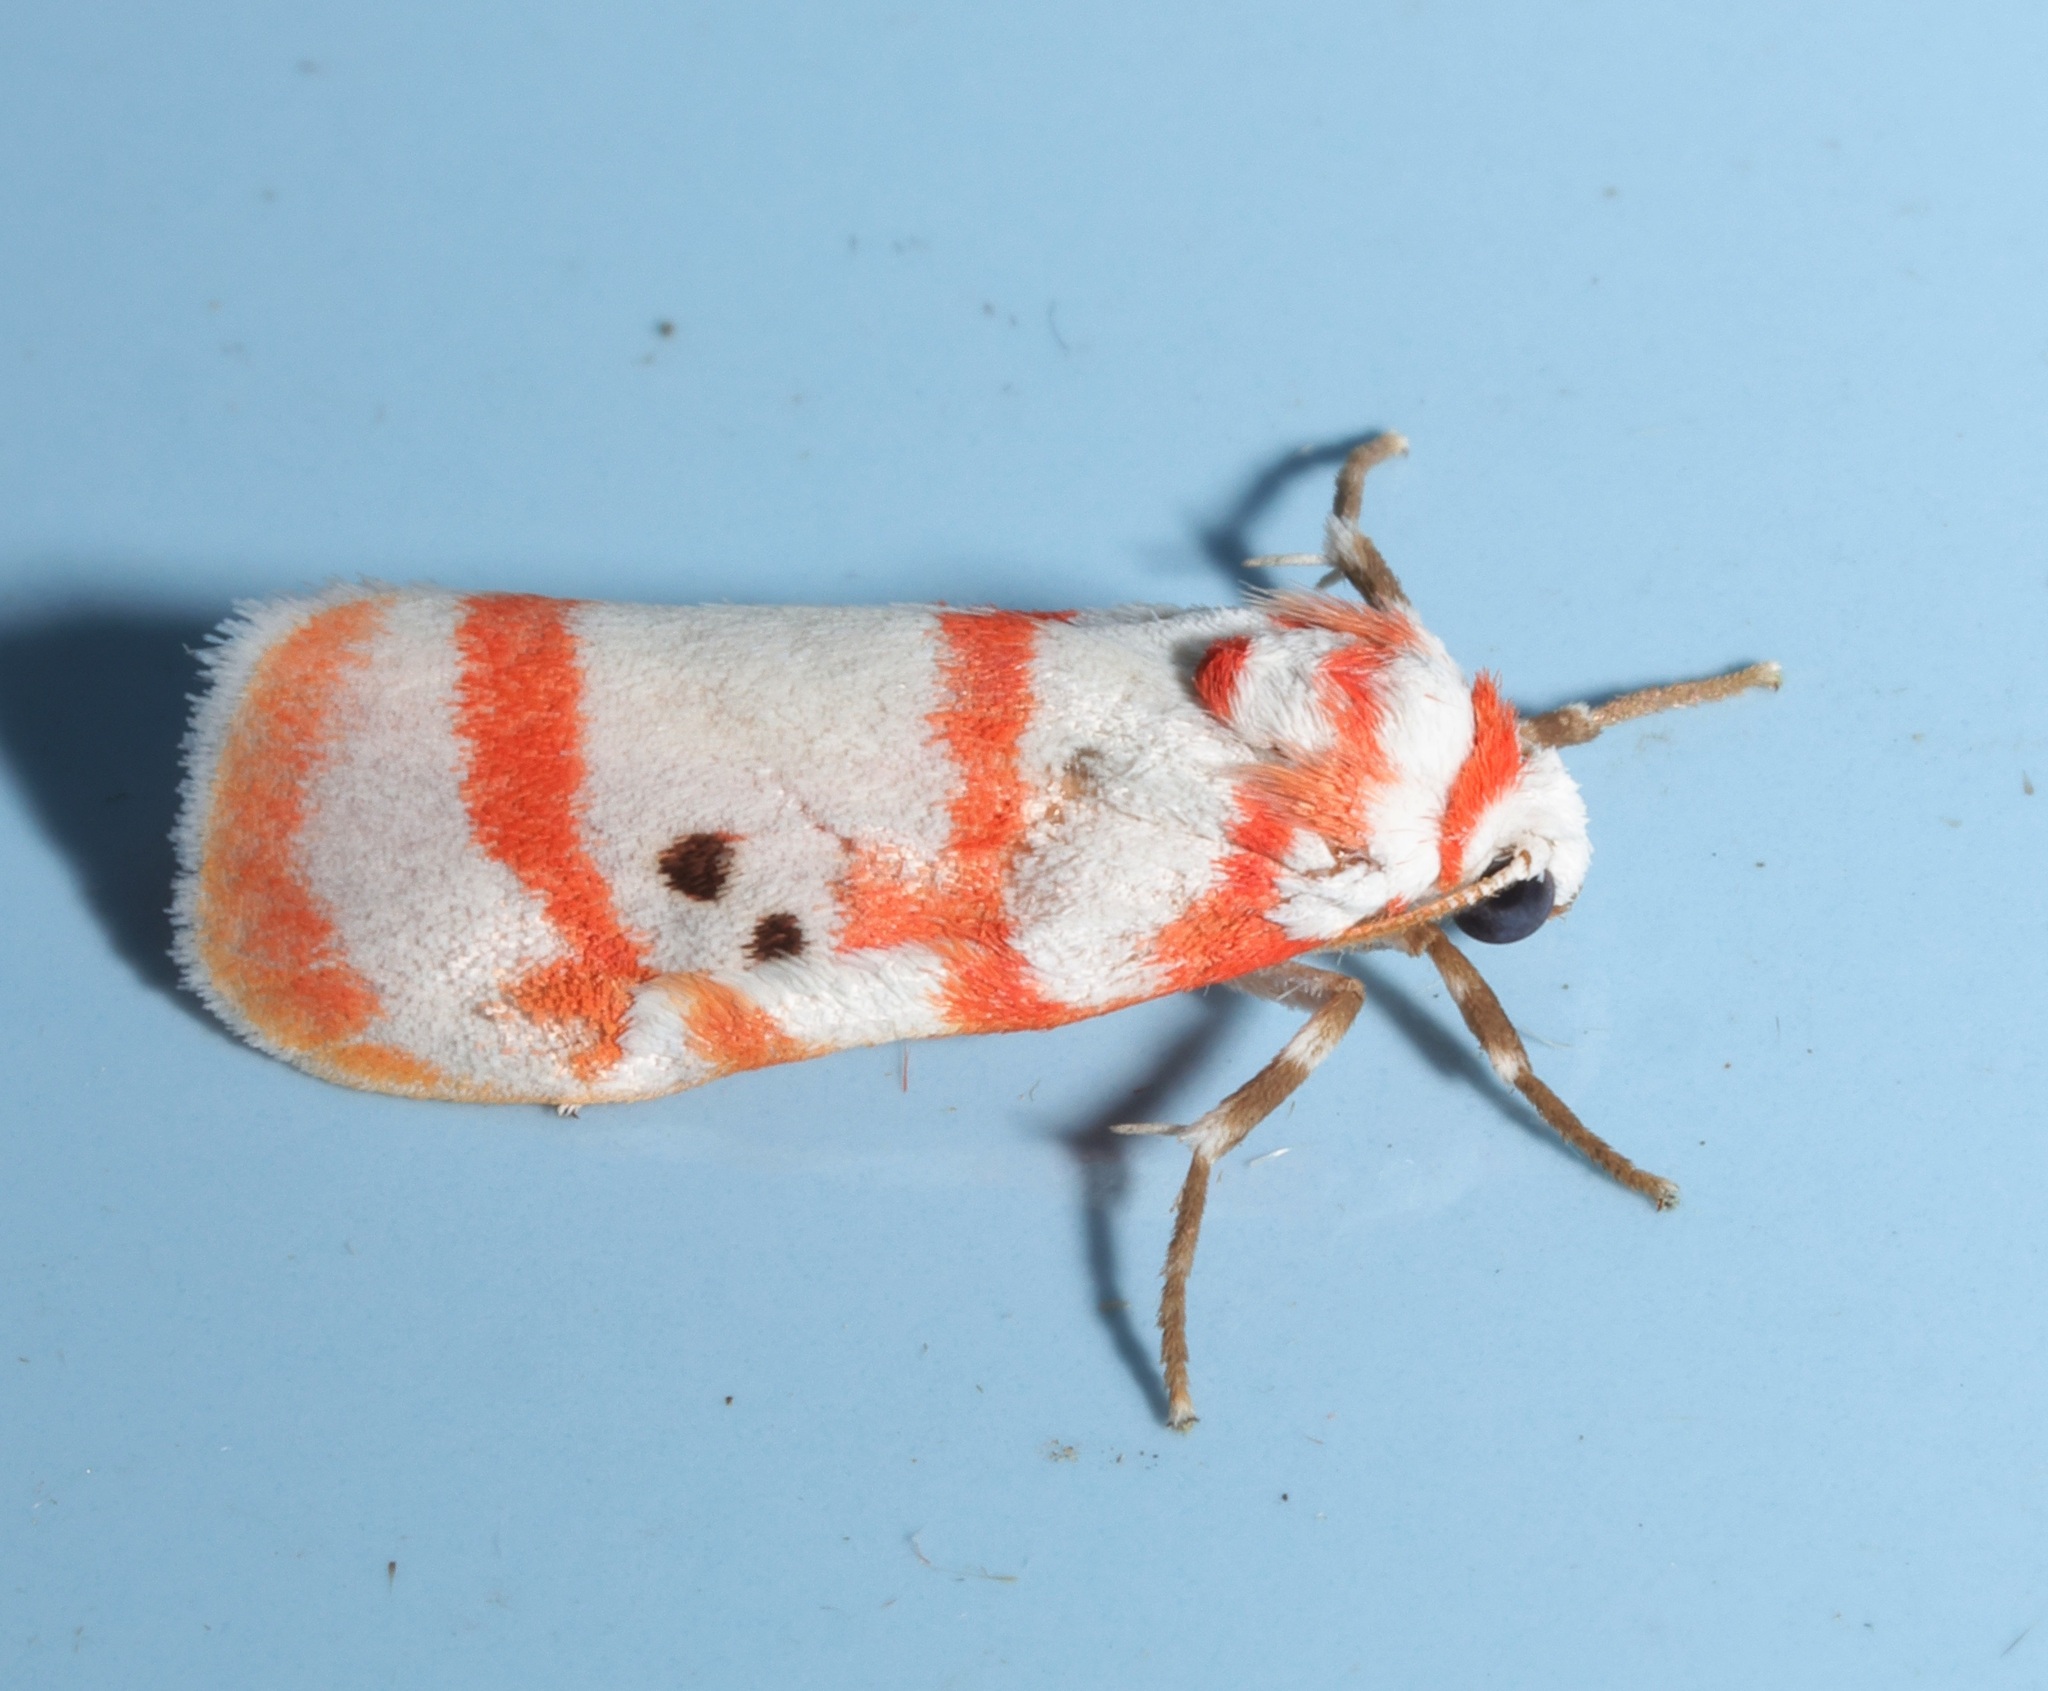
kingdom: Animalia
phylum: Arthropoda
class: Insecta
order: Lepidoptera
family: Erebidae
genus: Cyana
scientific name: Cyana fasciola
